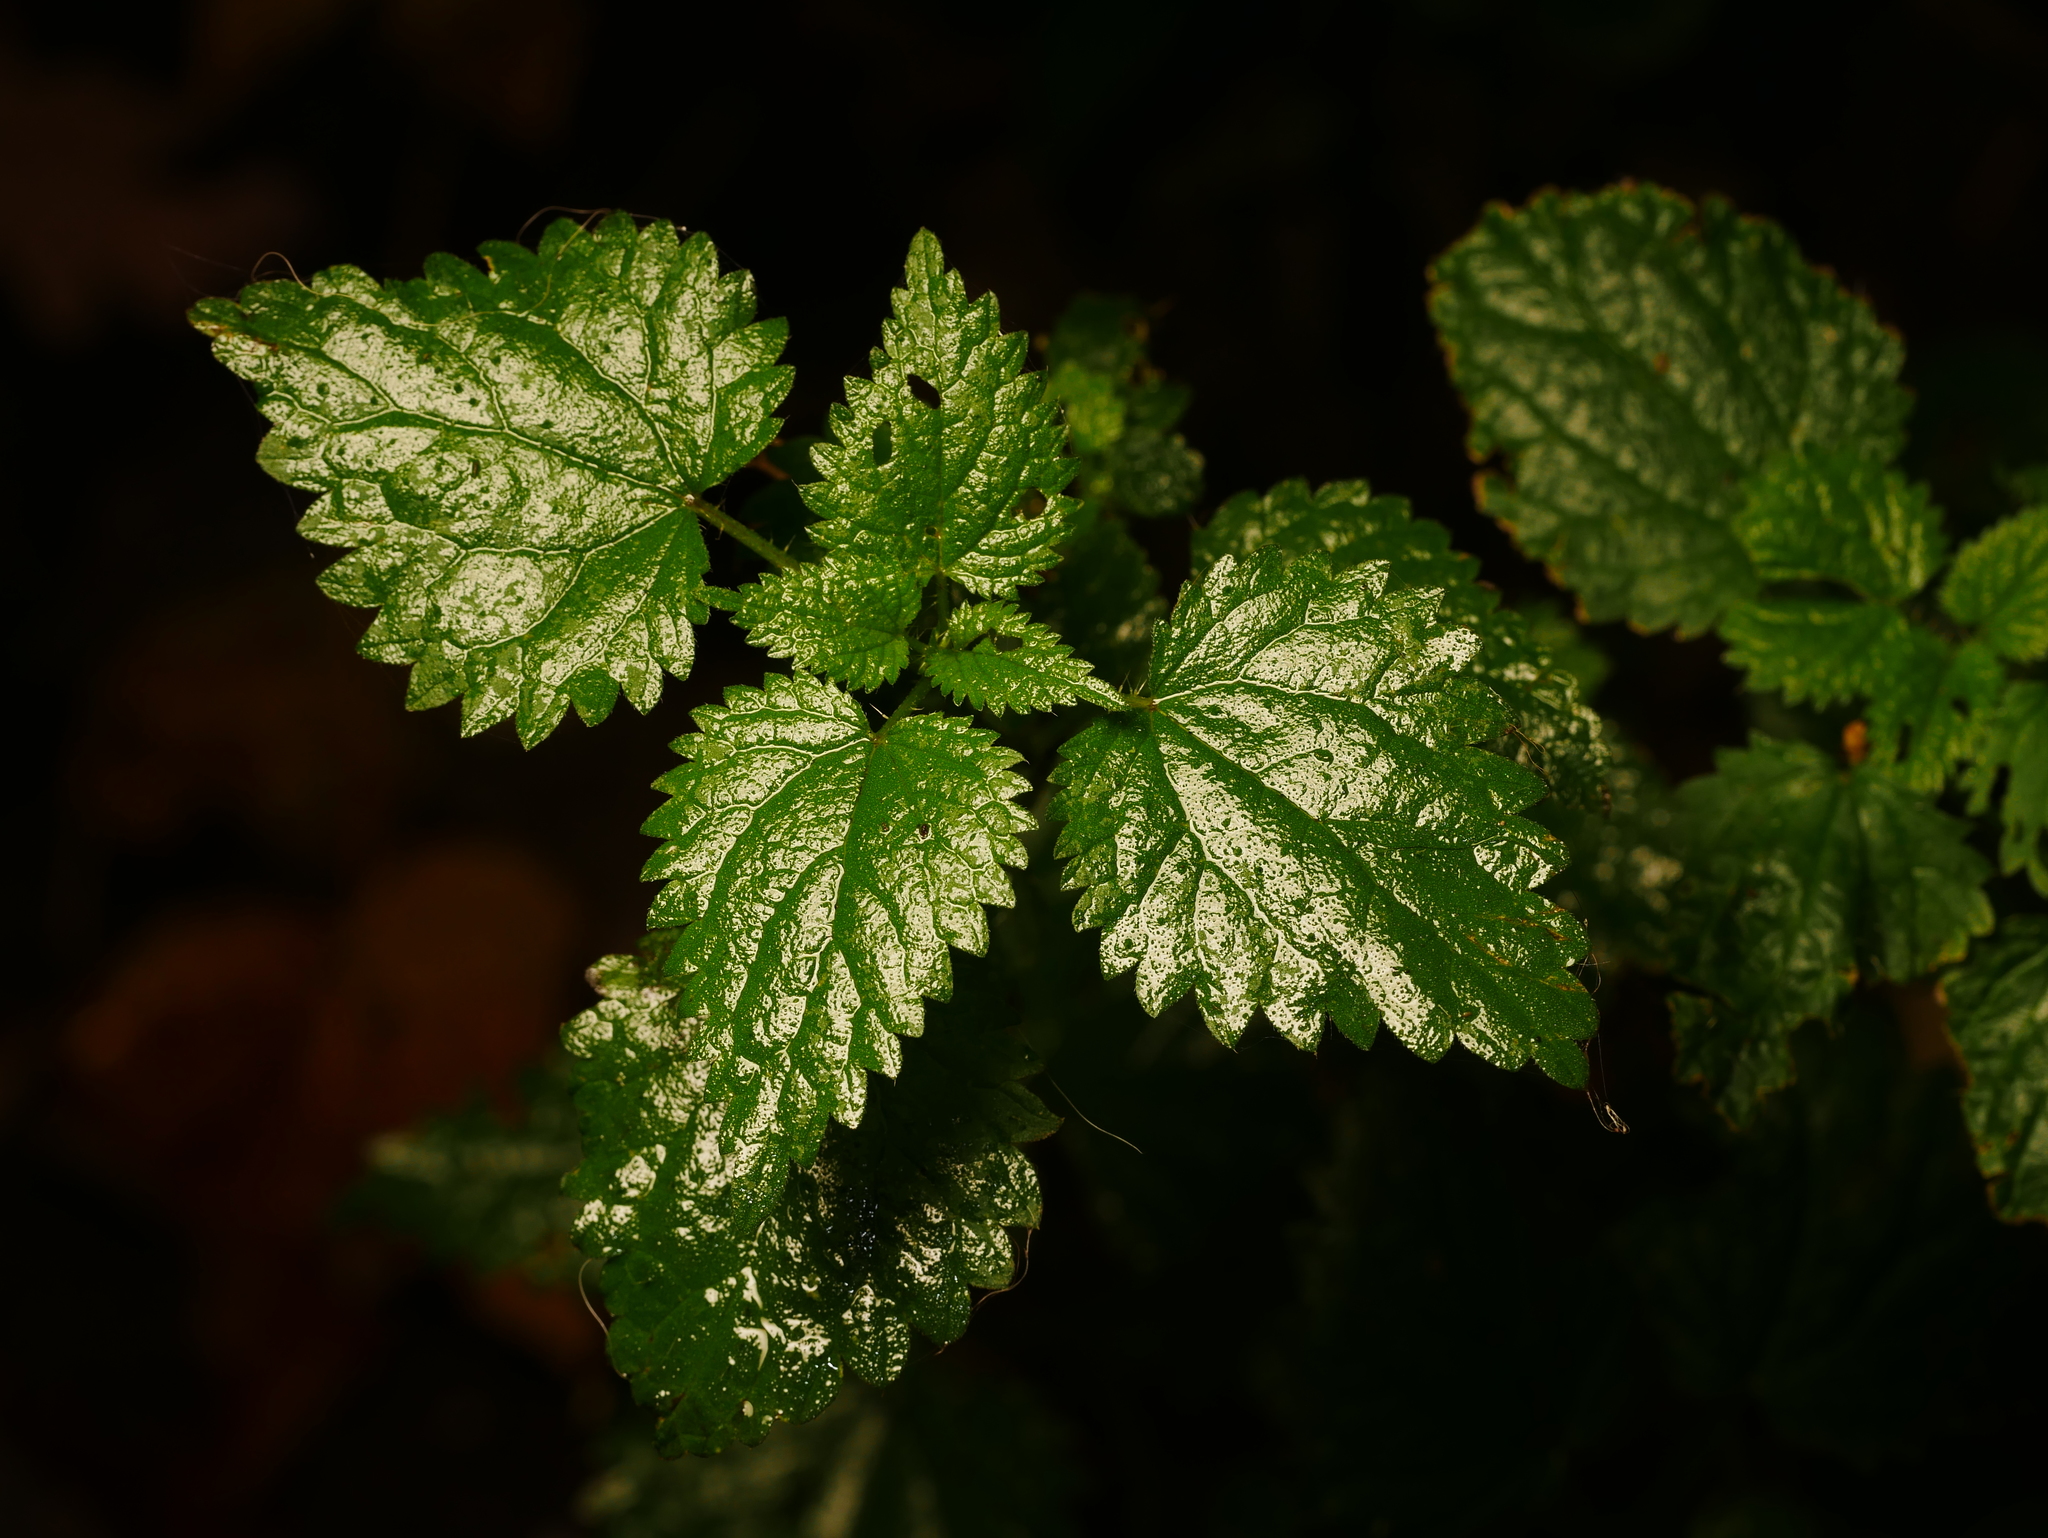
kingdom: Plantae
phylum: Tracheophyta
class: Magnoliopsida
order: Rosales
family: Urticaceae
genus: Urtica
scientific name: Urtica dioica
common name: Common nettle
